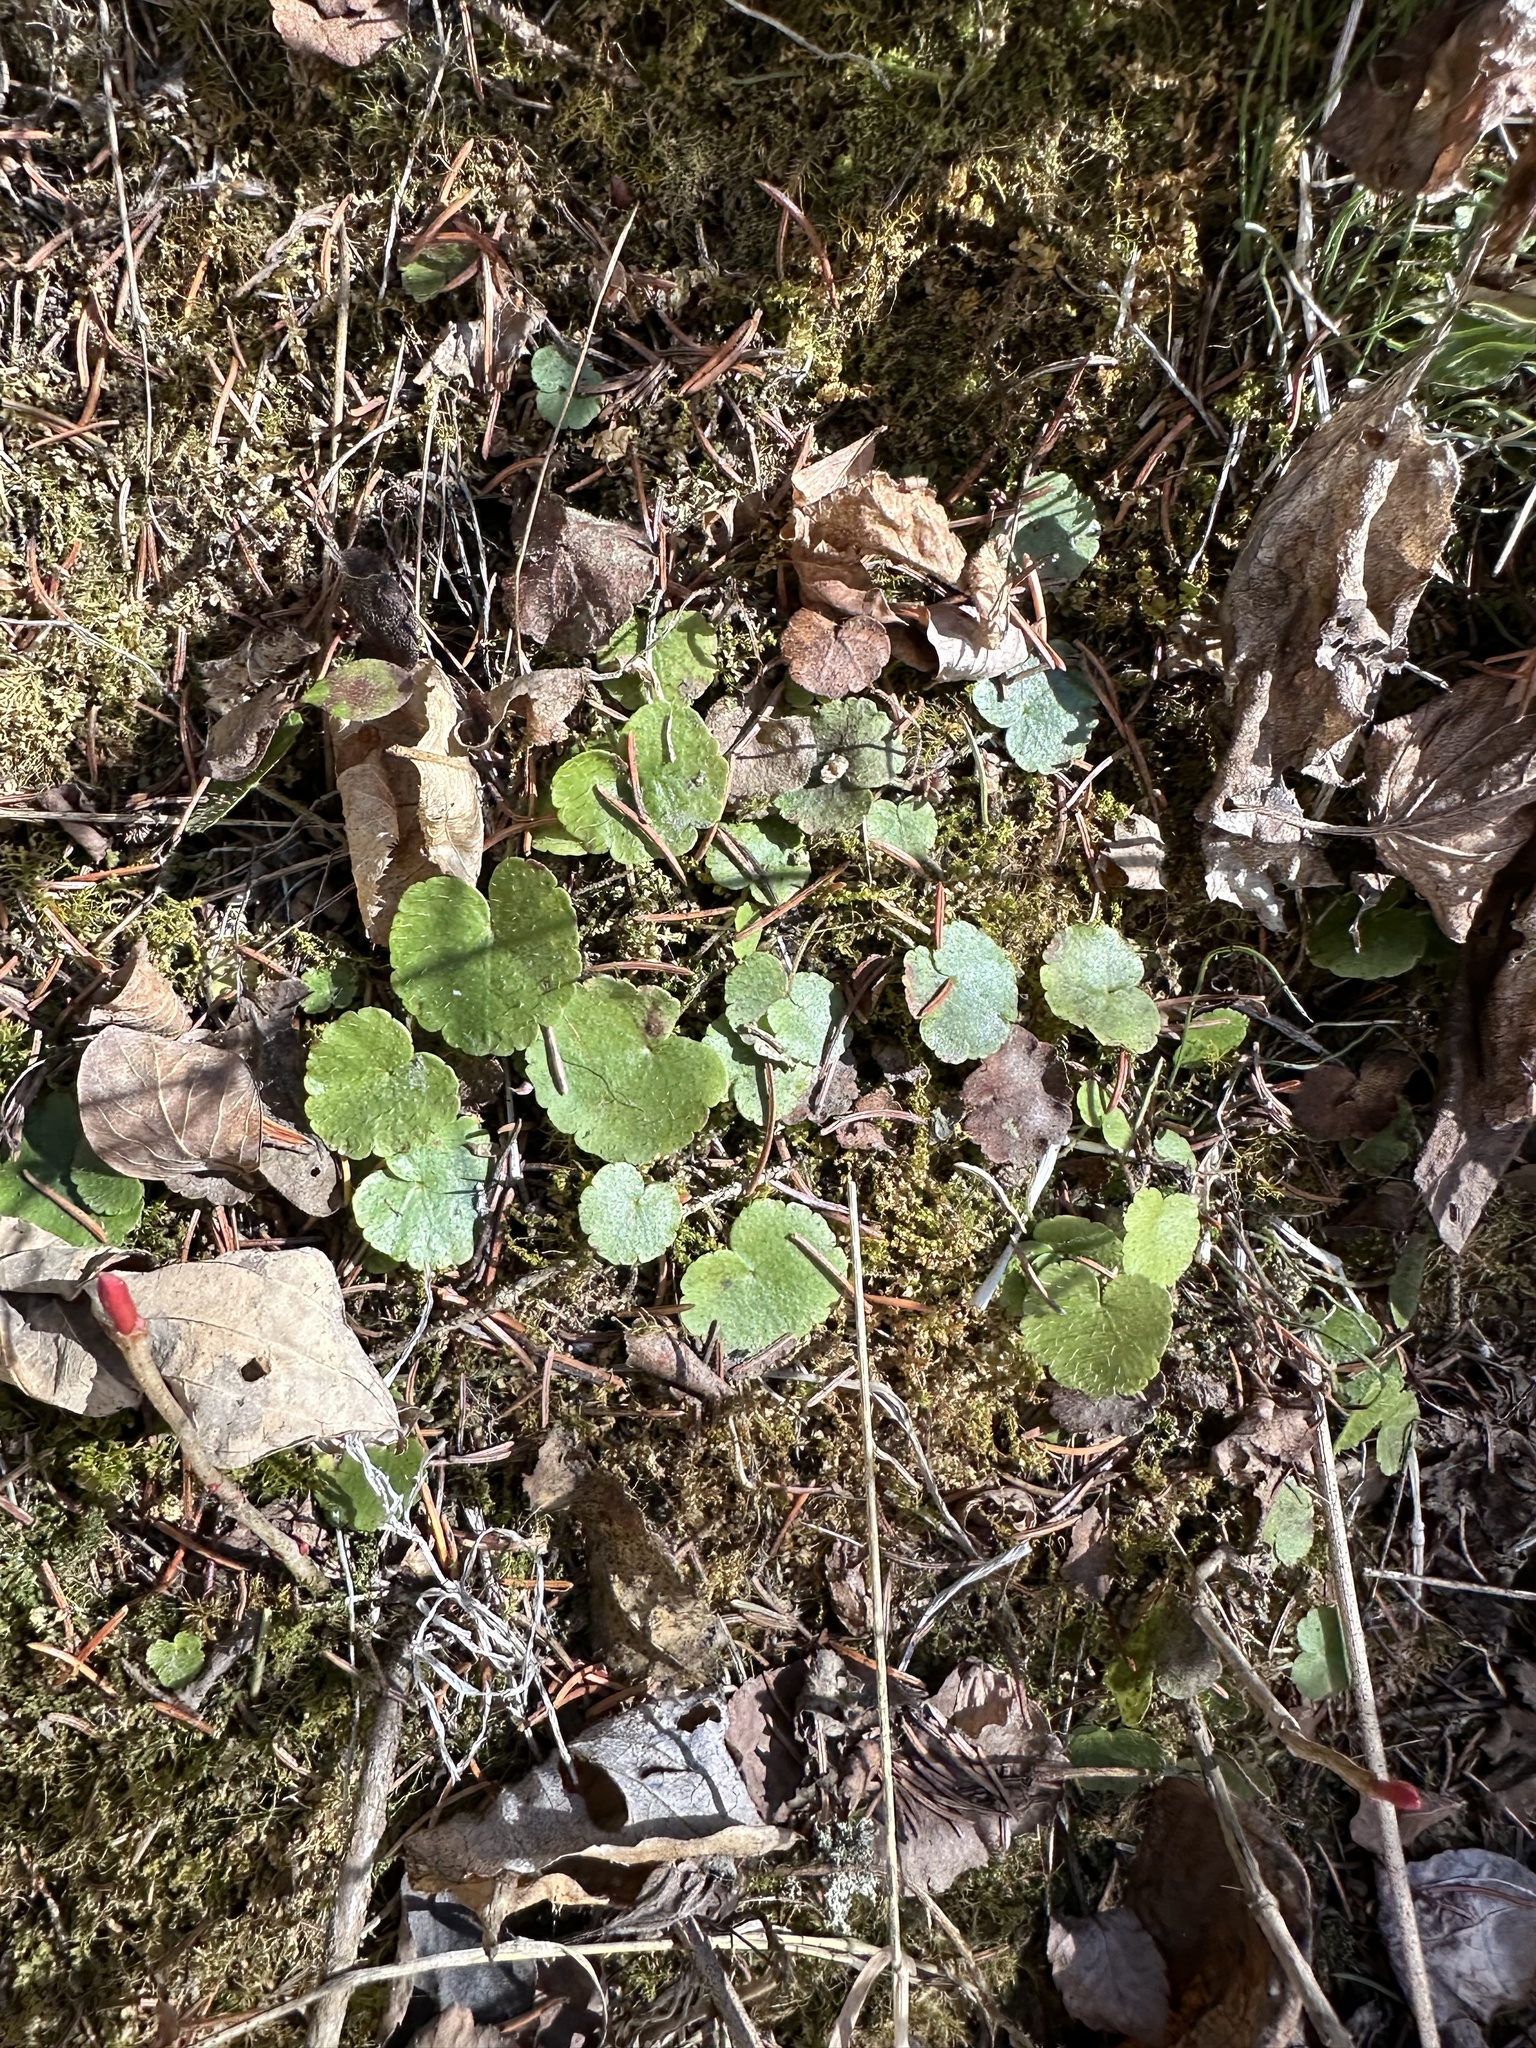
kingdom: Plantae
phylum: Tracheophyta
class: Magnoliopsida
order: Saxifragales
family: Saxifragaceae
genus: Mitella
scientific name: Mitella nuda
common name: Bare-stemmed bishop's-cap
